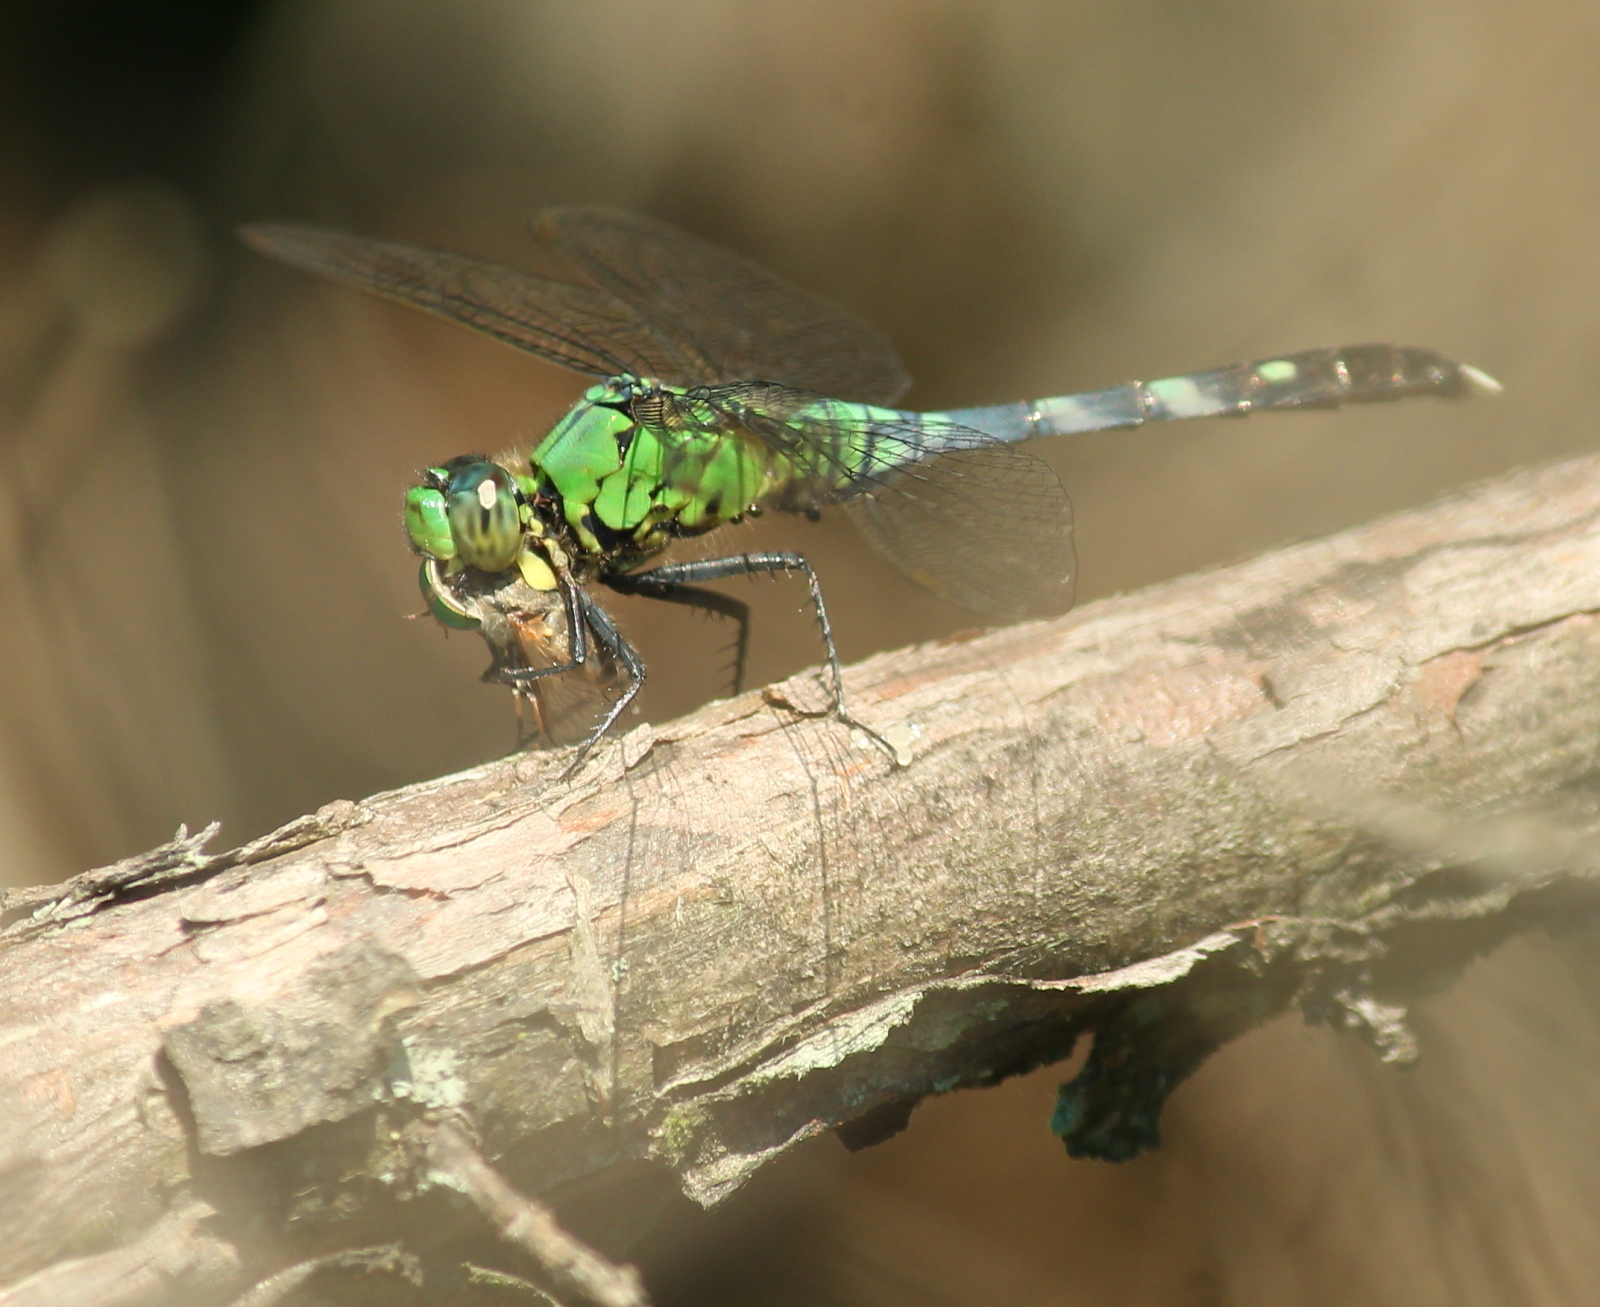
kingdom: Animalia
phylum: Arthropoda
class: Insecta
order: Odonata
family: Libellulidae
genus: Erythemis
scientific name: Erythemis simplicicollis
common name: Eastern pondhawk
